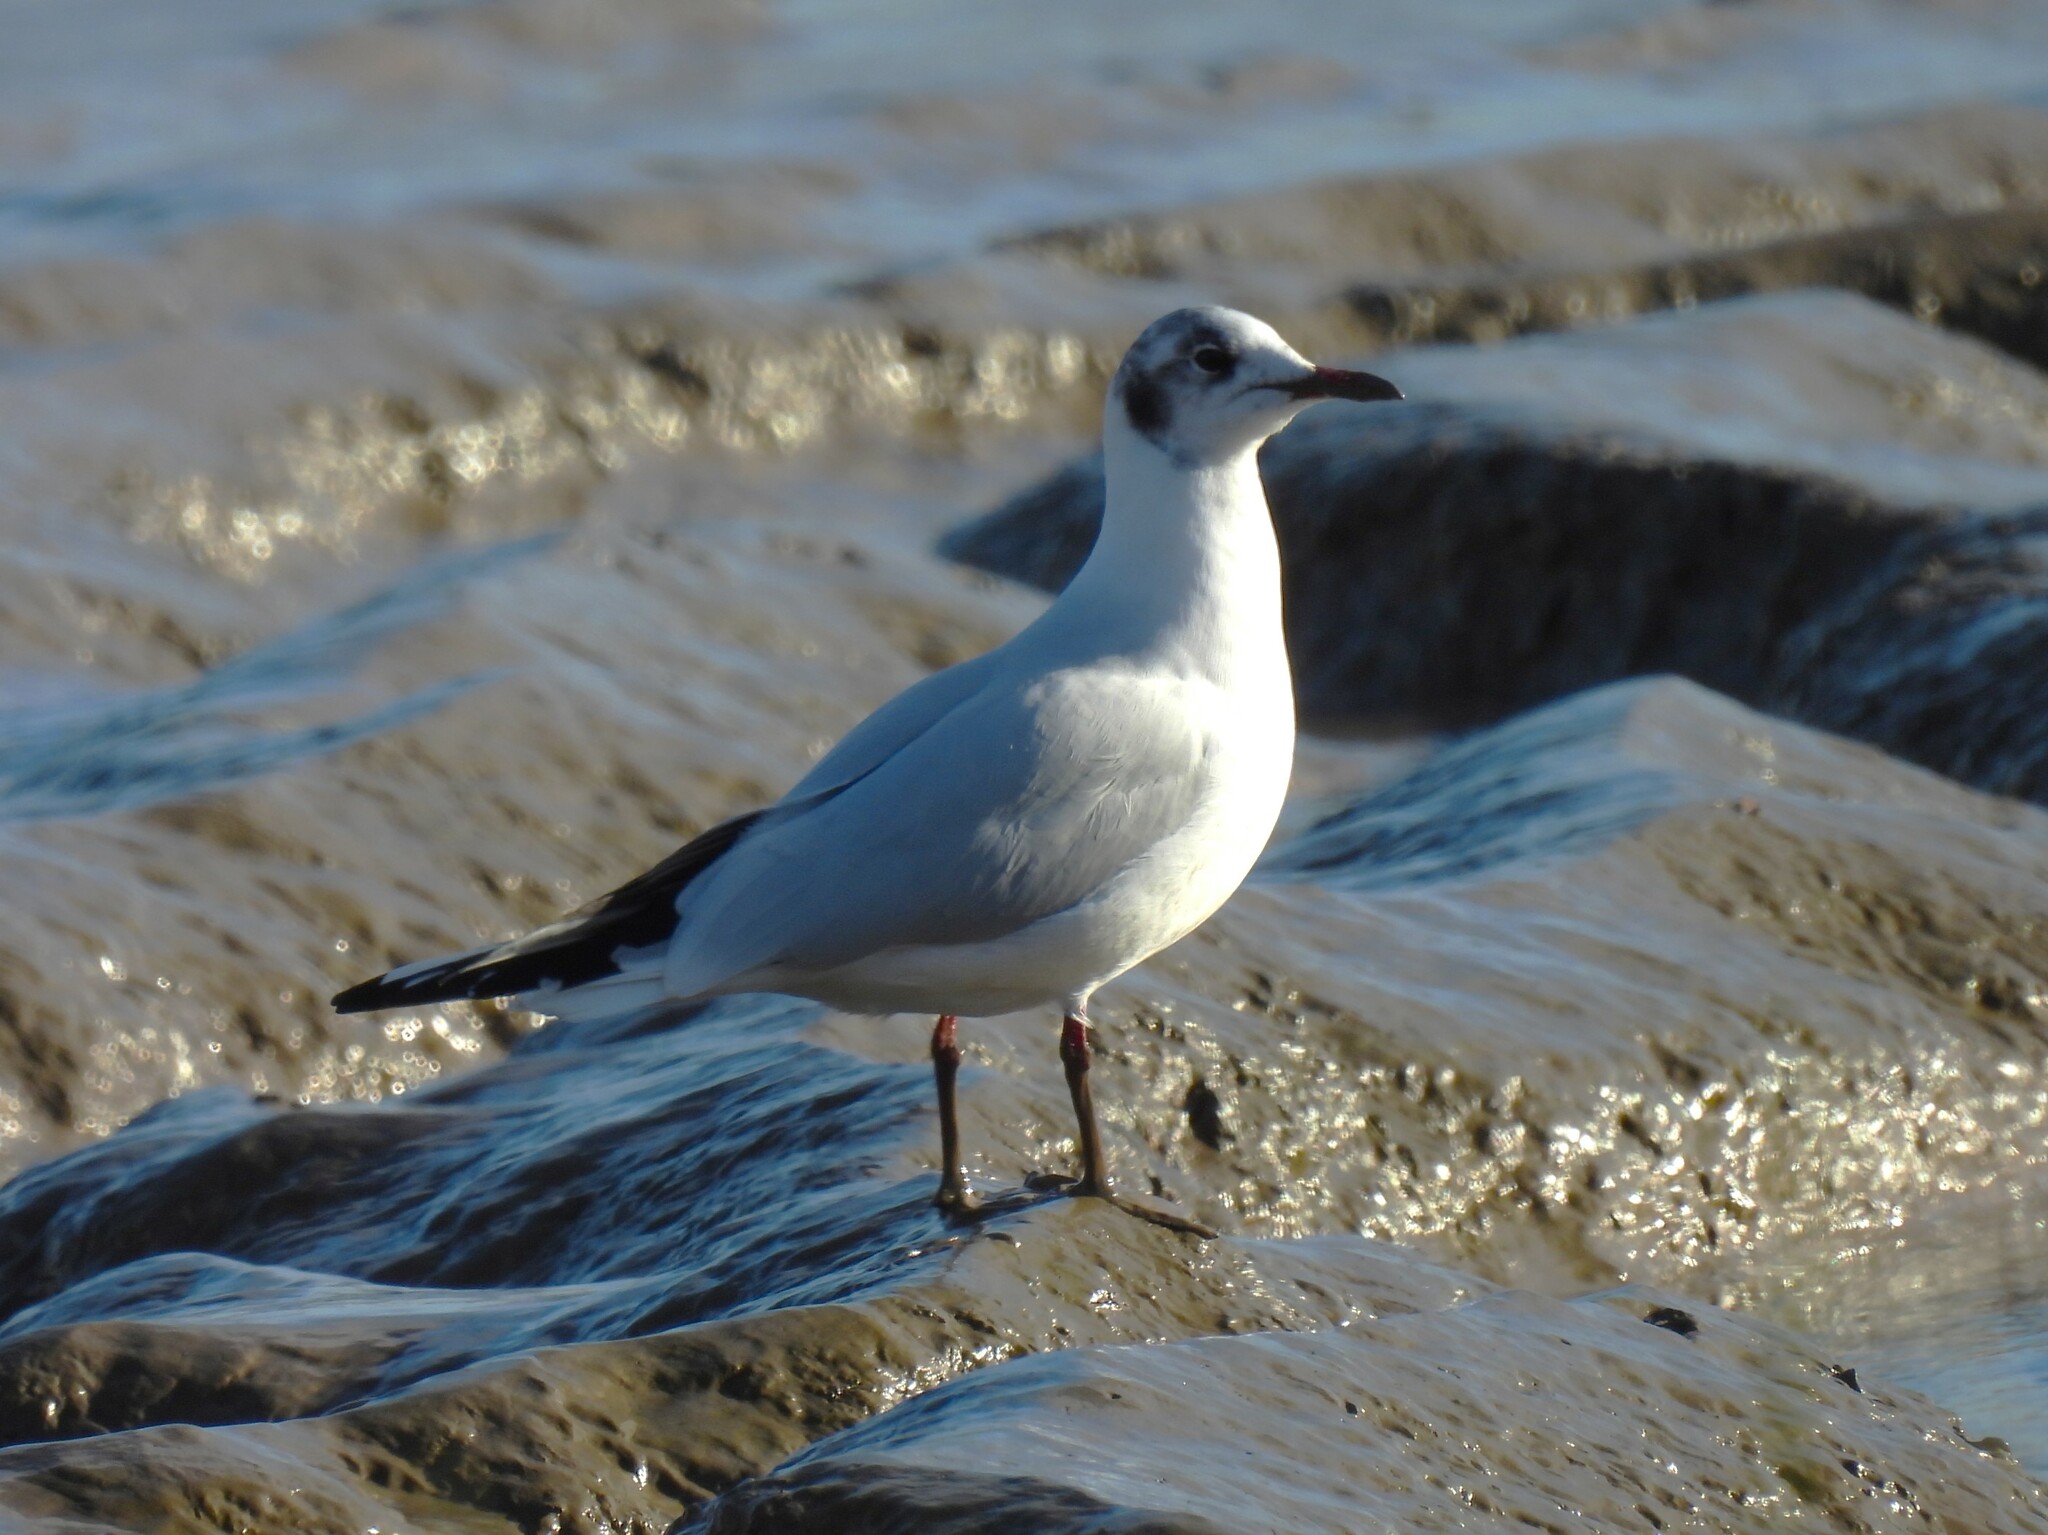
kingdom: Animalia
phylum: Chordata
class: Aves
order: Charadriiformes
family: Laridae
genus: Chroicocephalus
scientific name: Chroicocephalus ridibundus
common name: Black-headed gull
